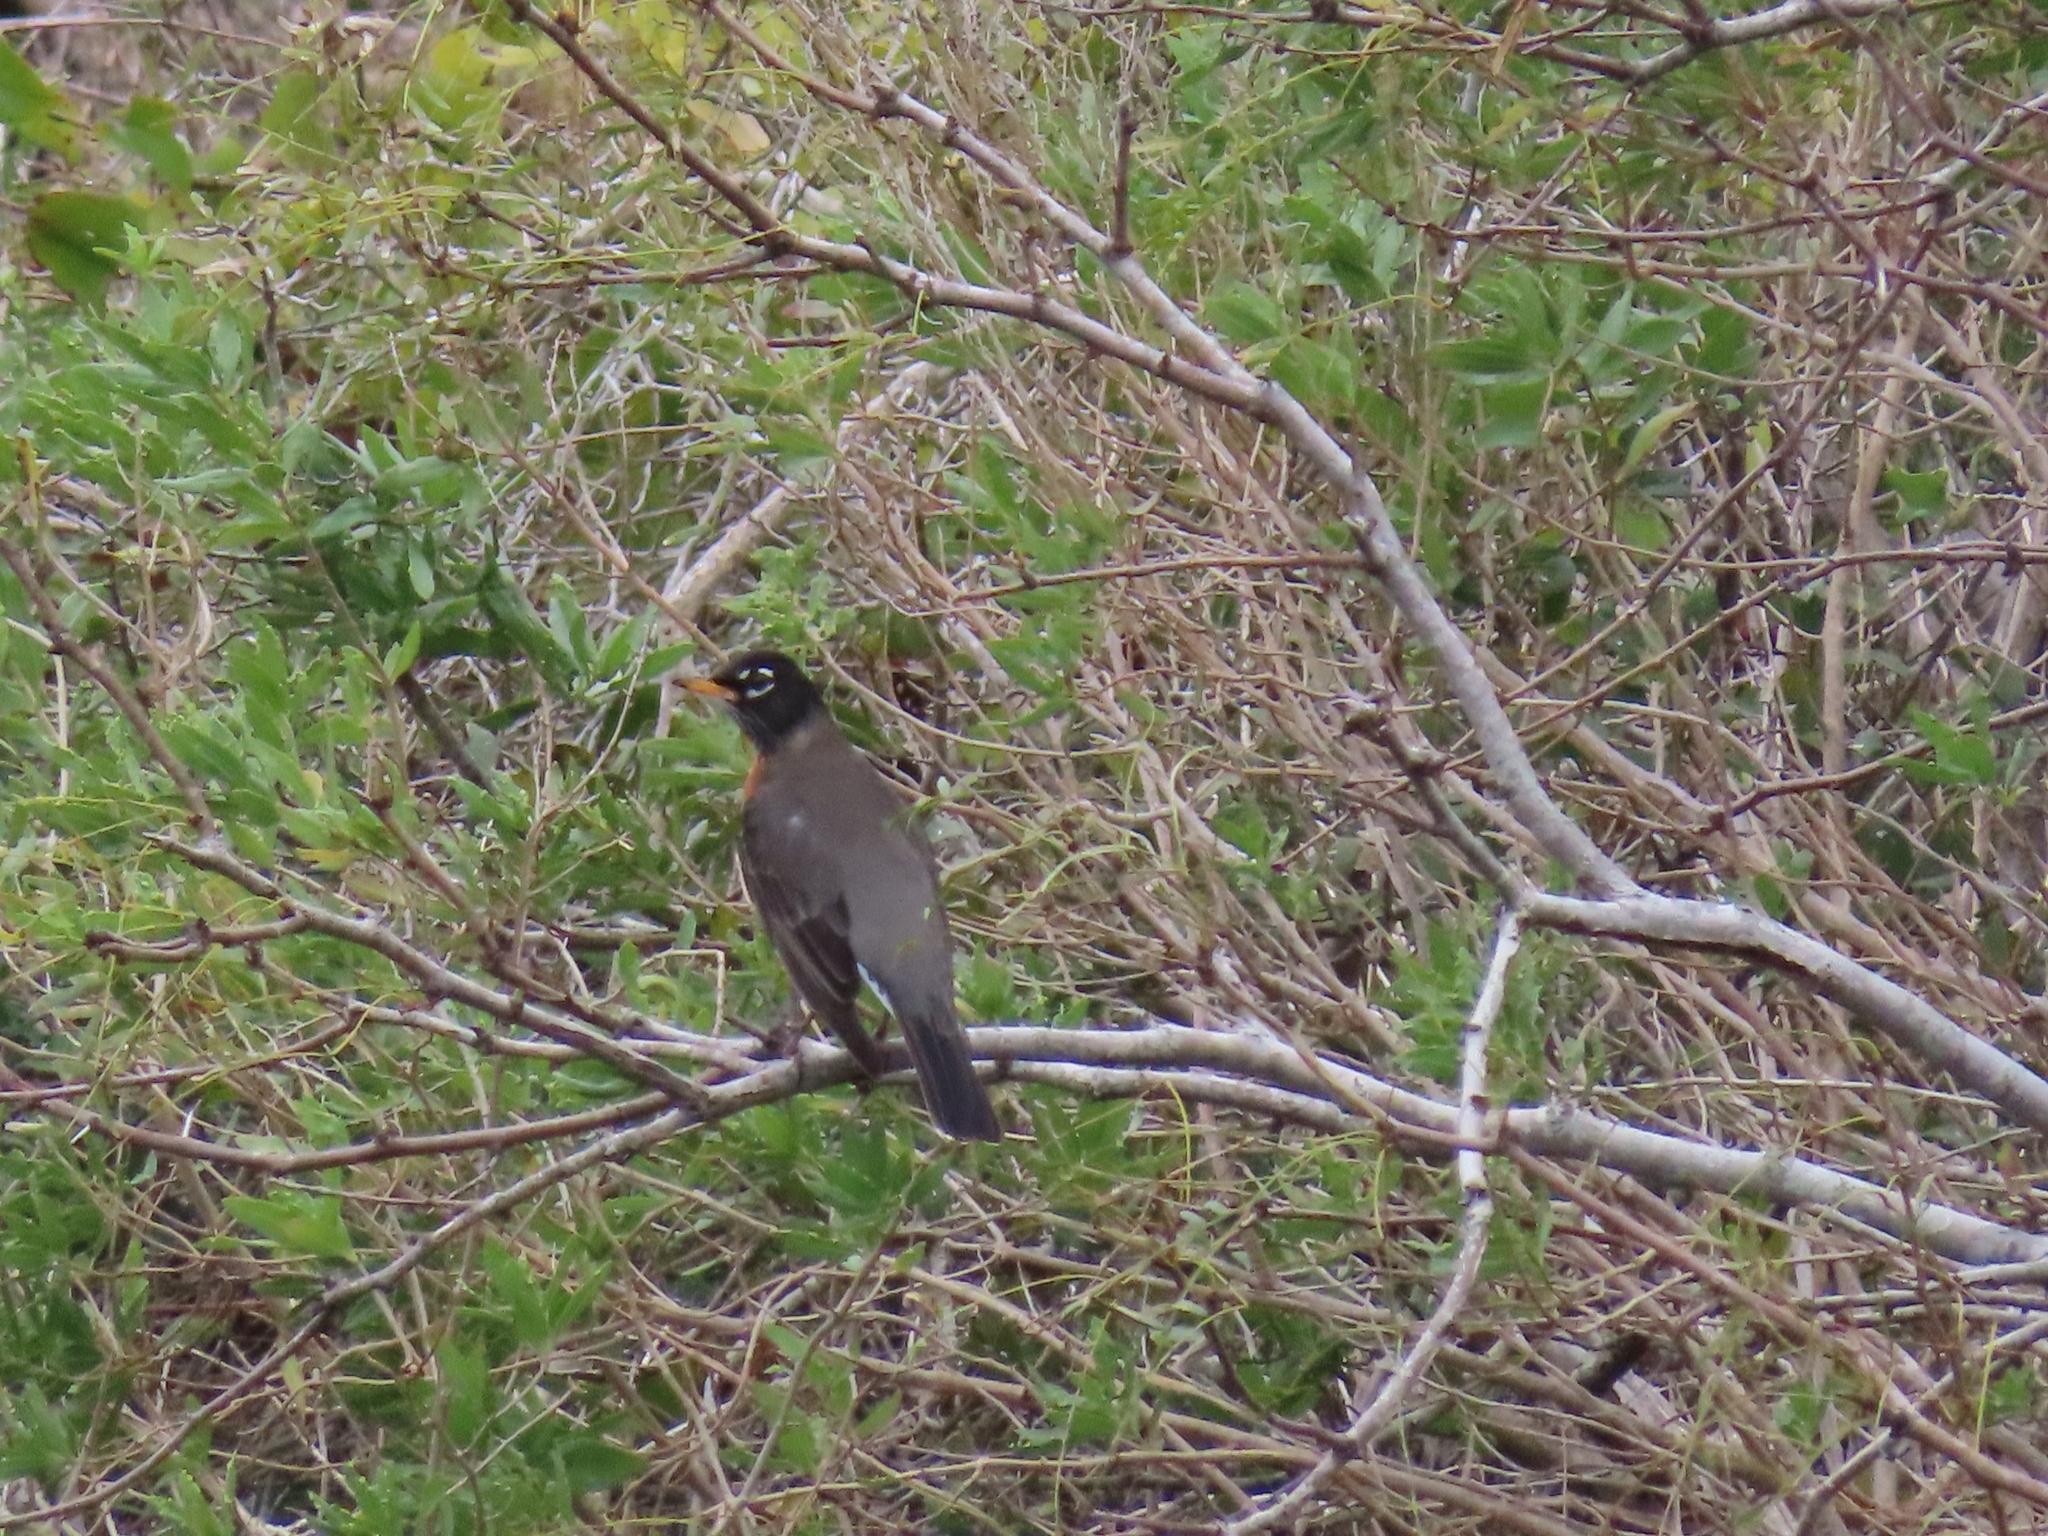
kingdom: Animalia
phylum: Chordata
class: Aves
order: Passeriformes
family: Turdidae
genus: Turdus
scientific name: Turdus migratorius
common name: American robin
